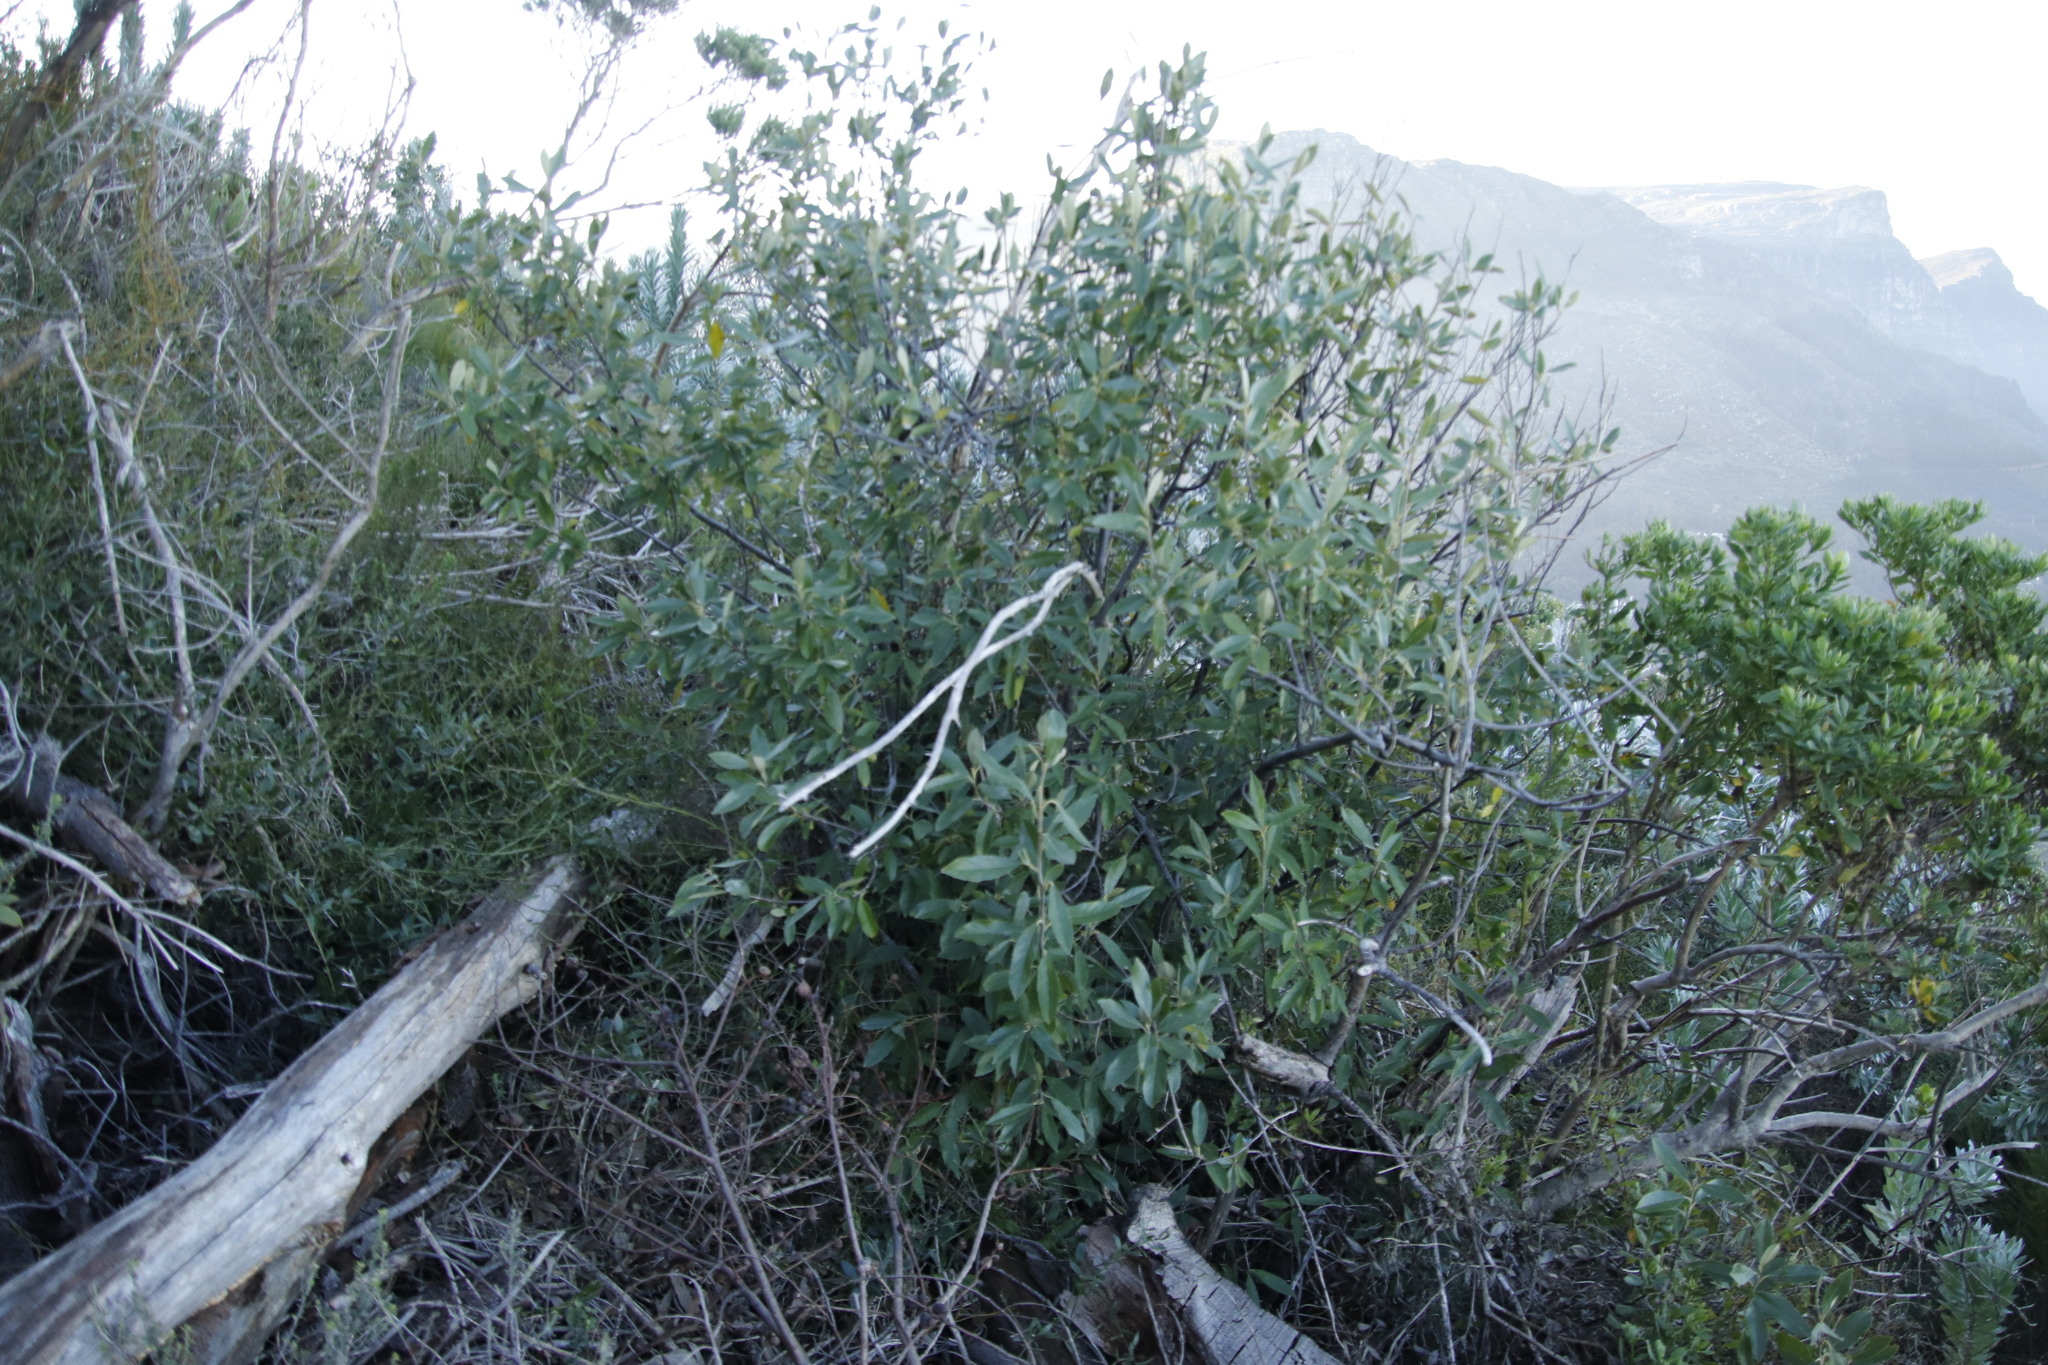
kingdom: Plantae
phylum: Tracheophyta
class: Magnoliopsida
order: Malpighiales
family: Achariaceae
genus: Kiggelaria
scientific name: Kiggelaria africana
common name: Wild peach
